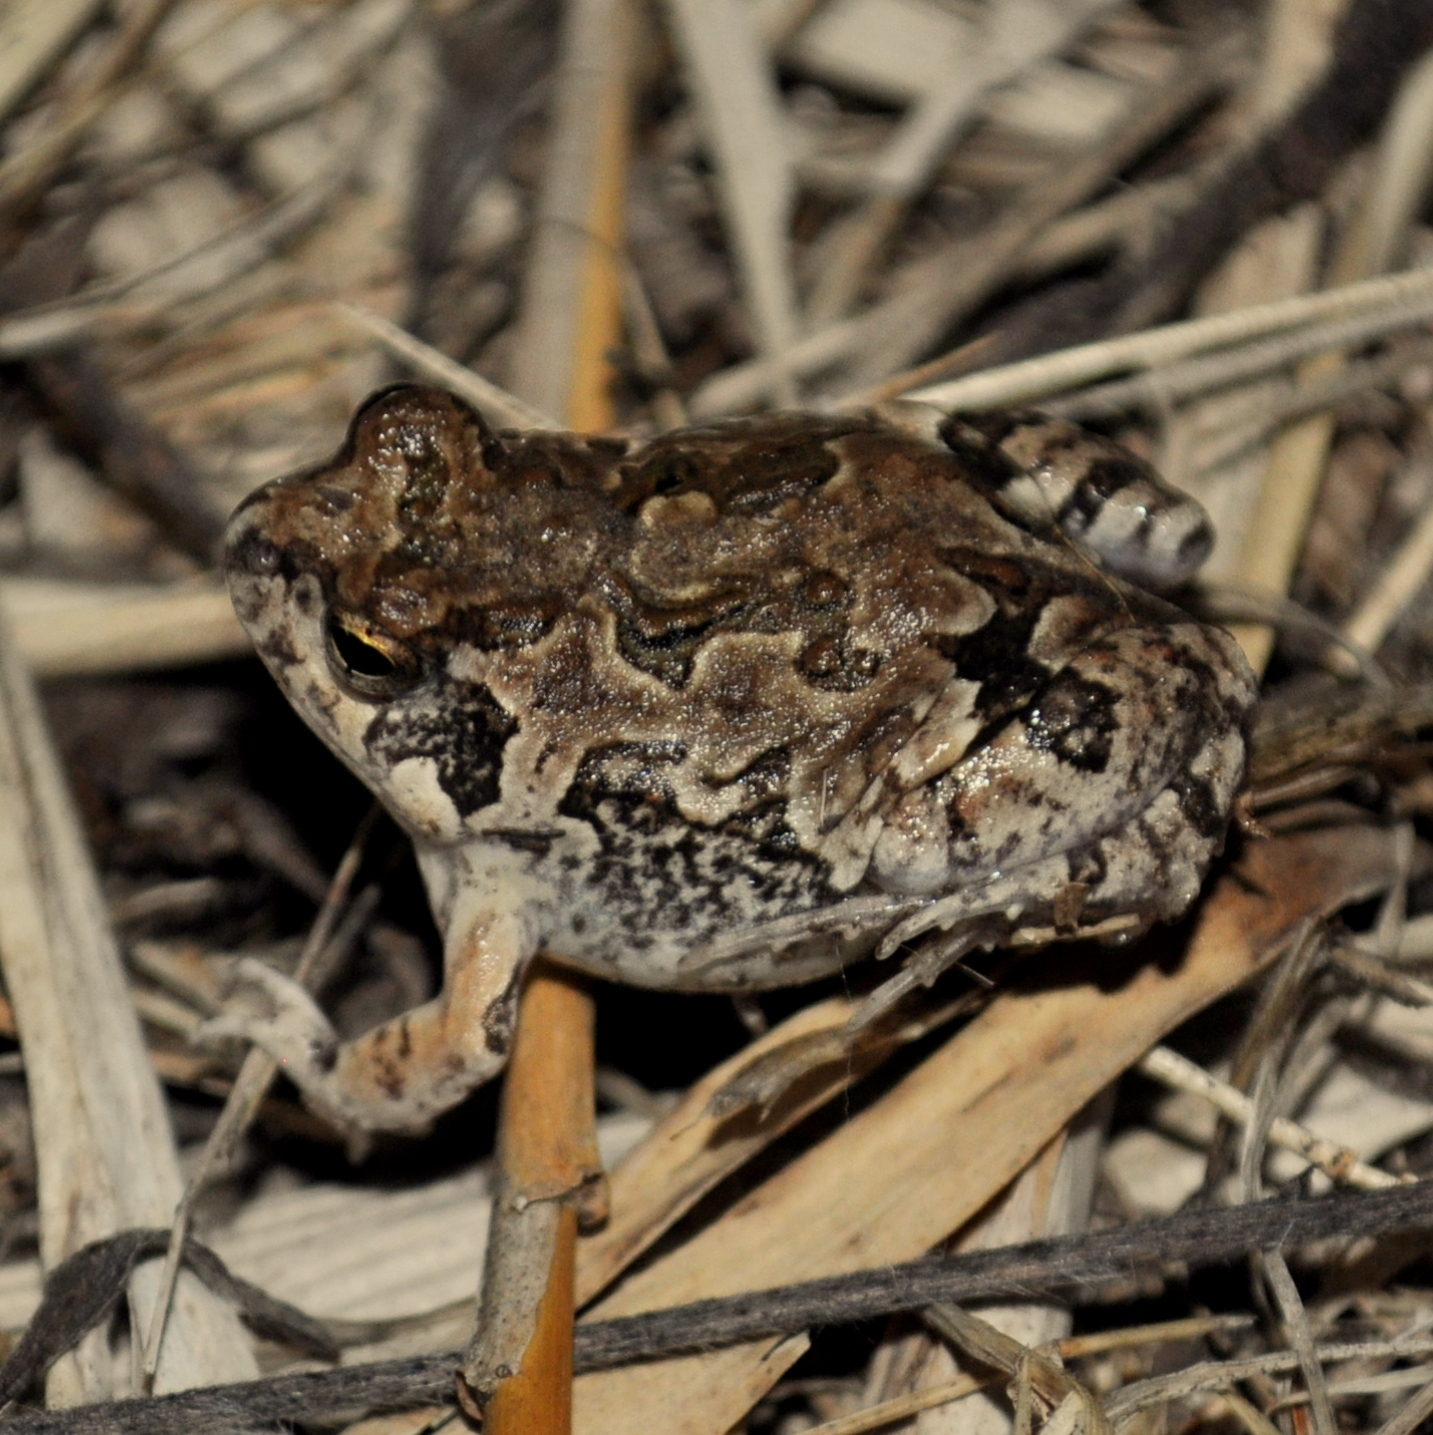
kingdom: Animalia
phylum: Chordata
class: Amphibia
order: Anura
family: Leptodactylidae
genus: Physalaemus
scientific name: Physalaemus biligonigerus
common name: Weeping frog
